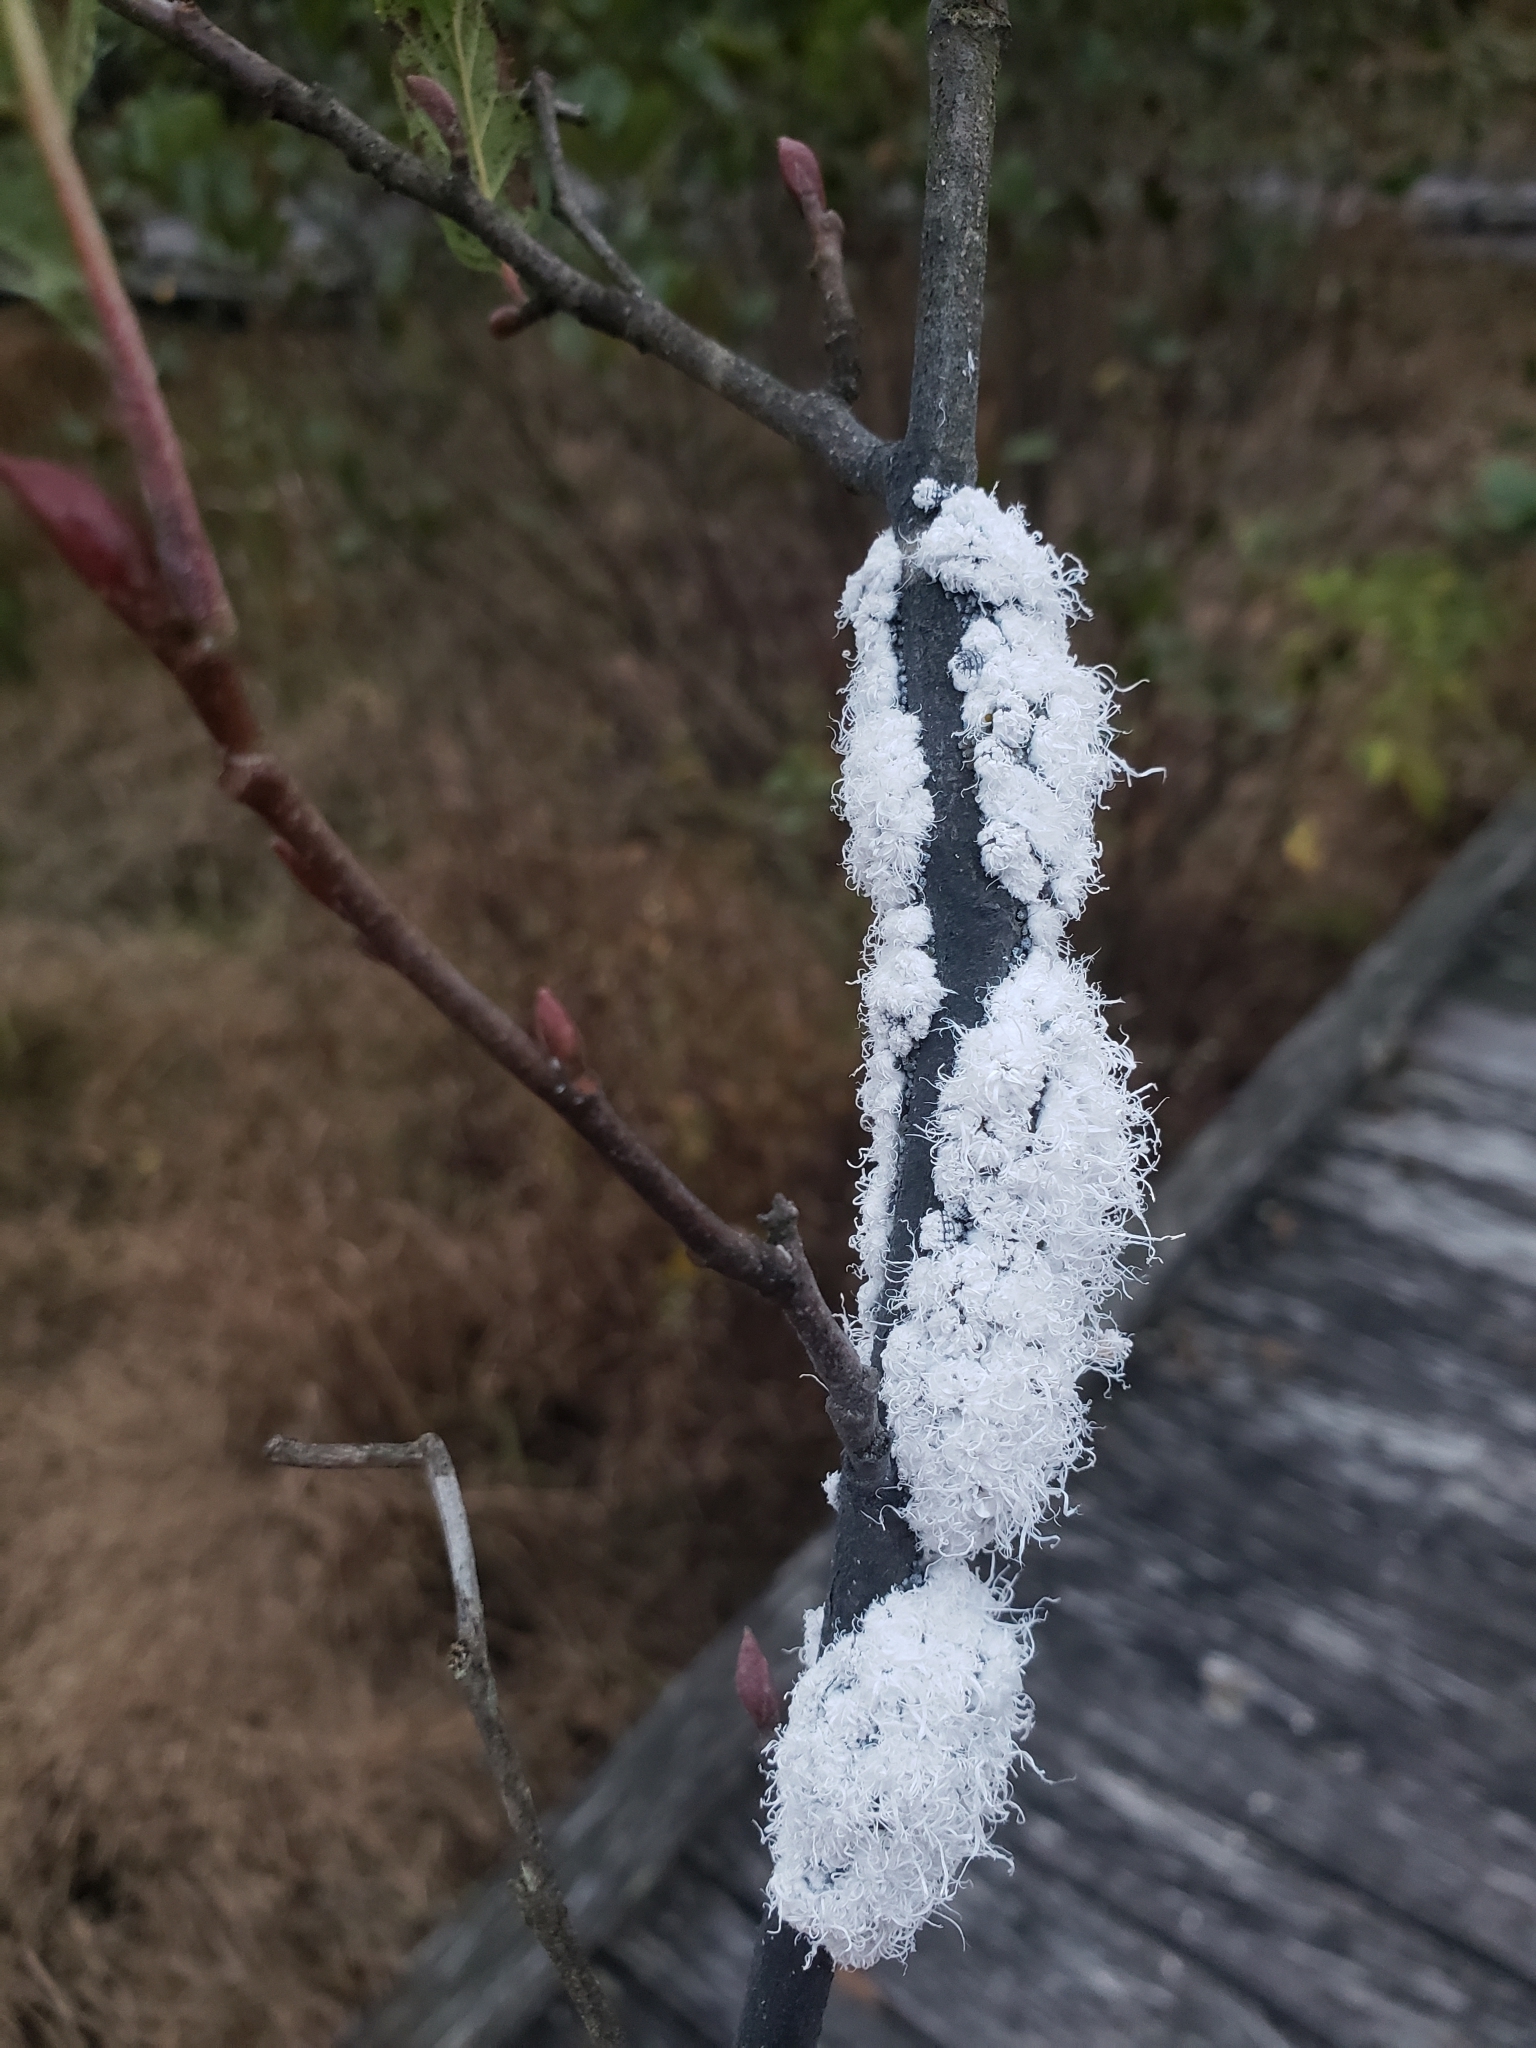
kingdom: Animalia
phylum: Arthropoda
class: Insecta
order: Hemiptera
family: Aphididae
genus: Prociphilus
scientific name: Prociphilus tessellatus
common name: Woolly alder aphid
